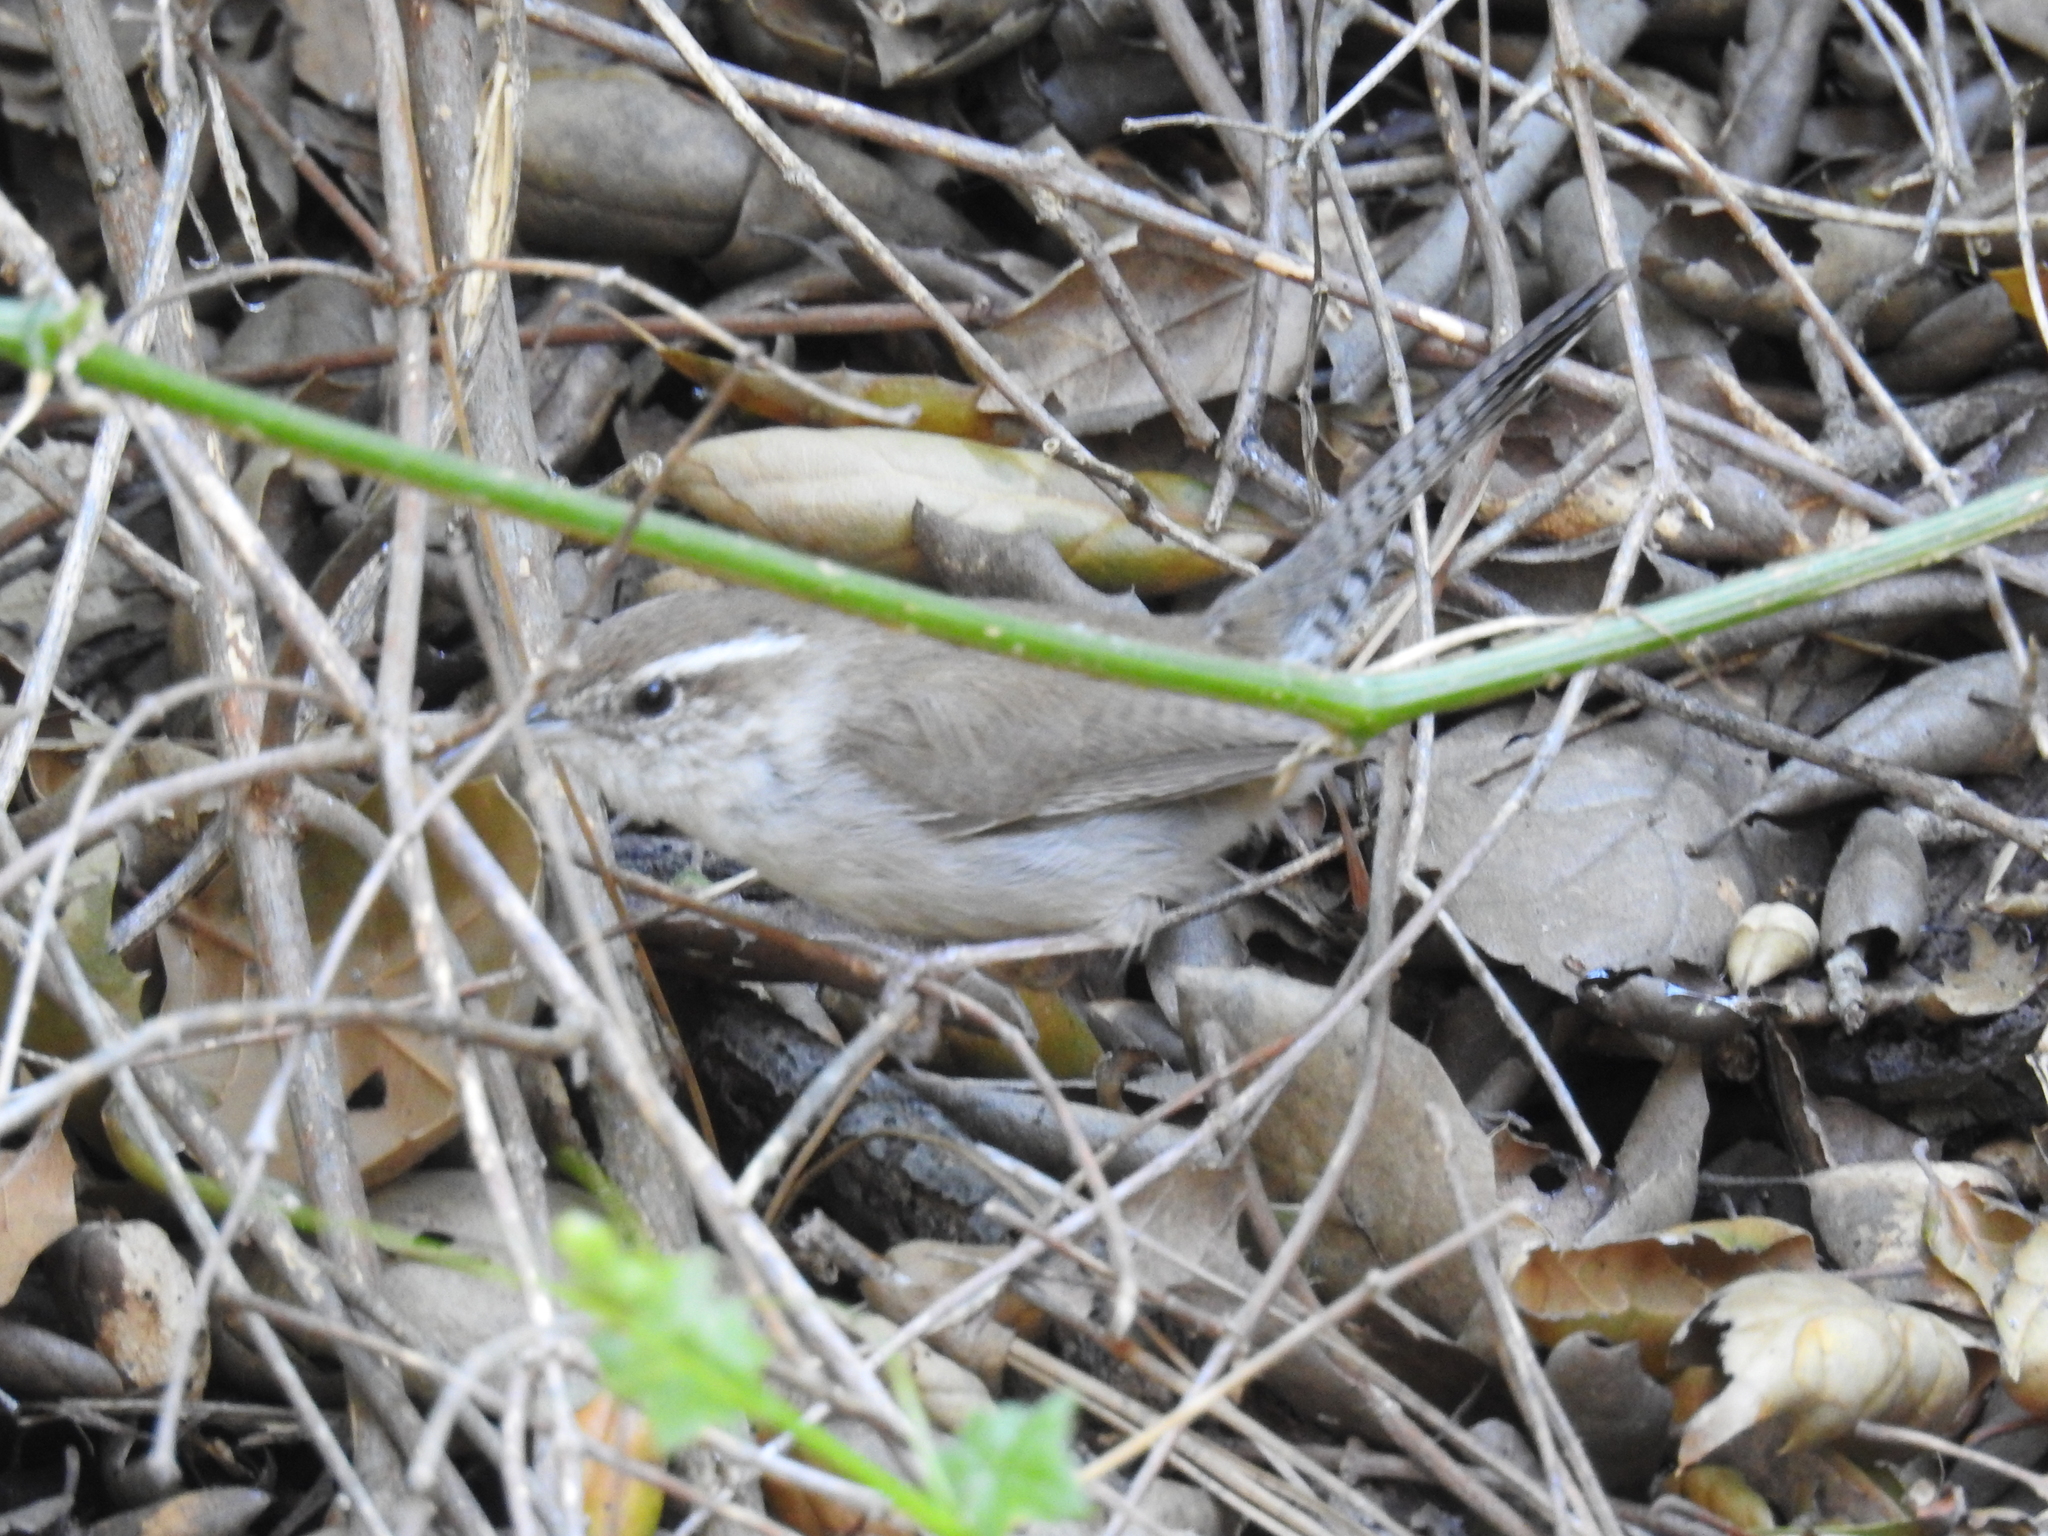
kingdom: Animalia
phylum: Chordata
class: Aves
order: Passeriformes
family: Troglodytidae
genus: Thryomanes
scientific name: Thryomanes bewickii
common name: Bewick's wren
